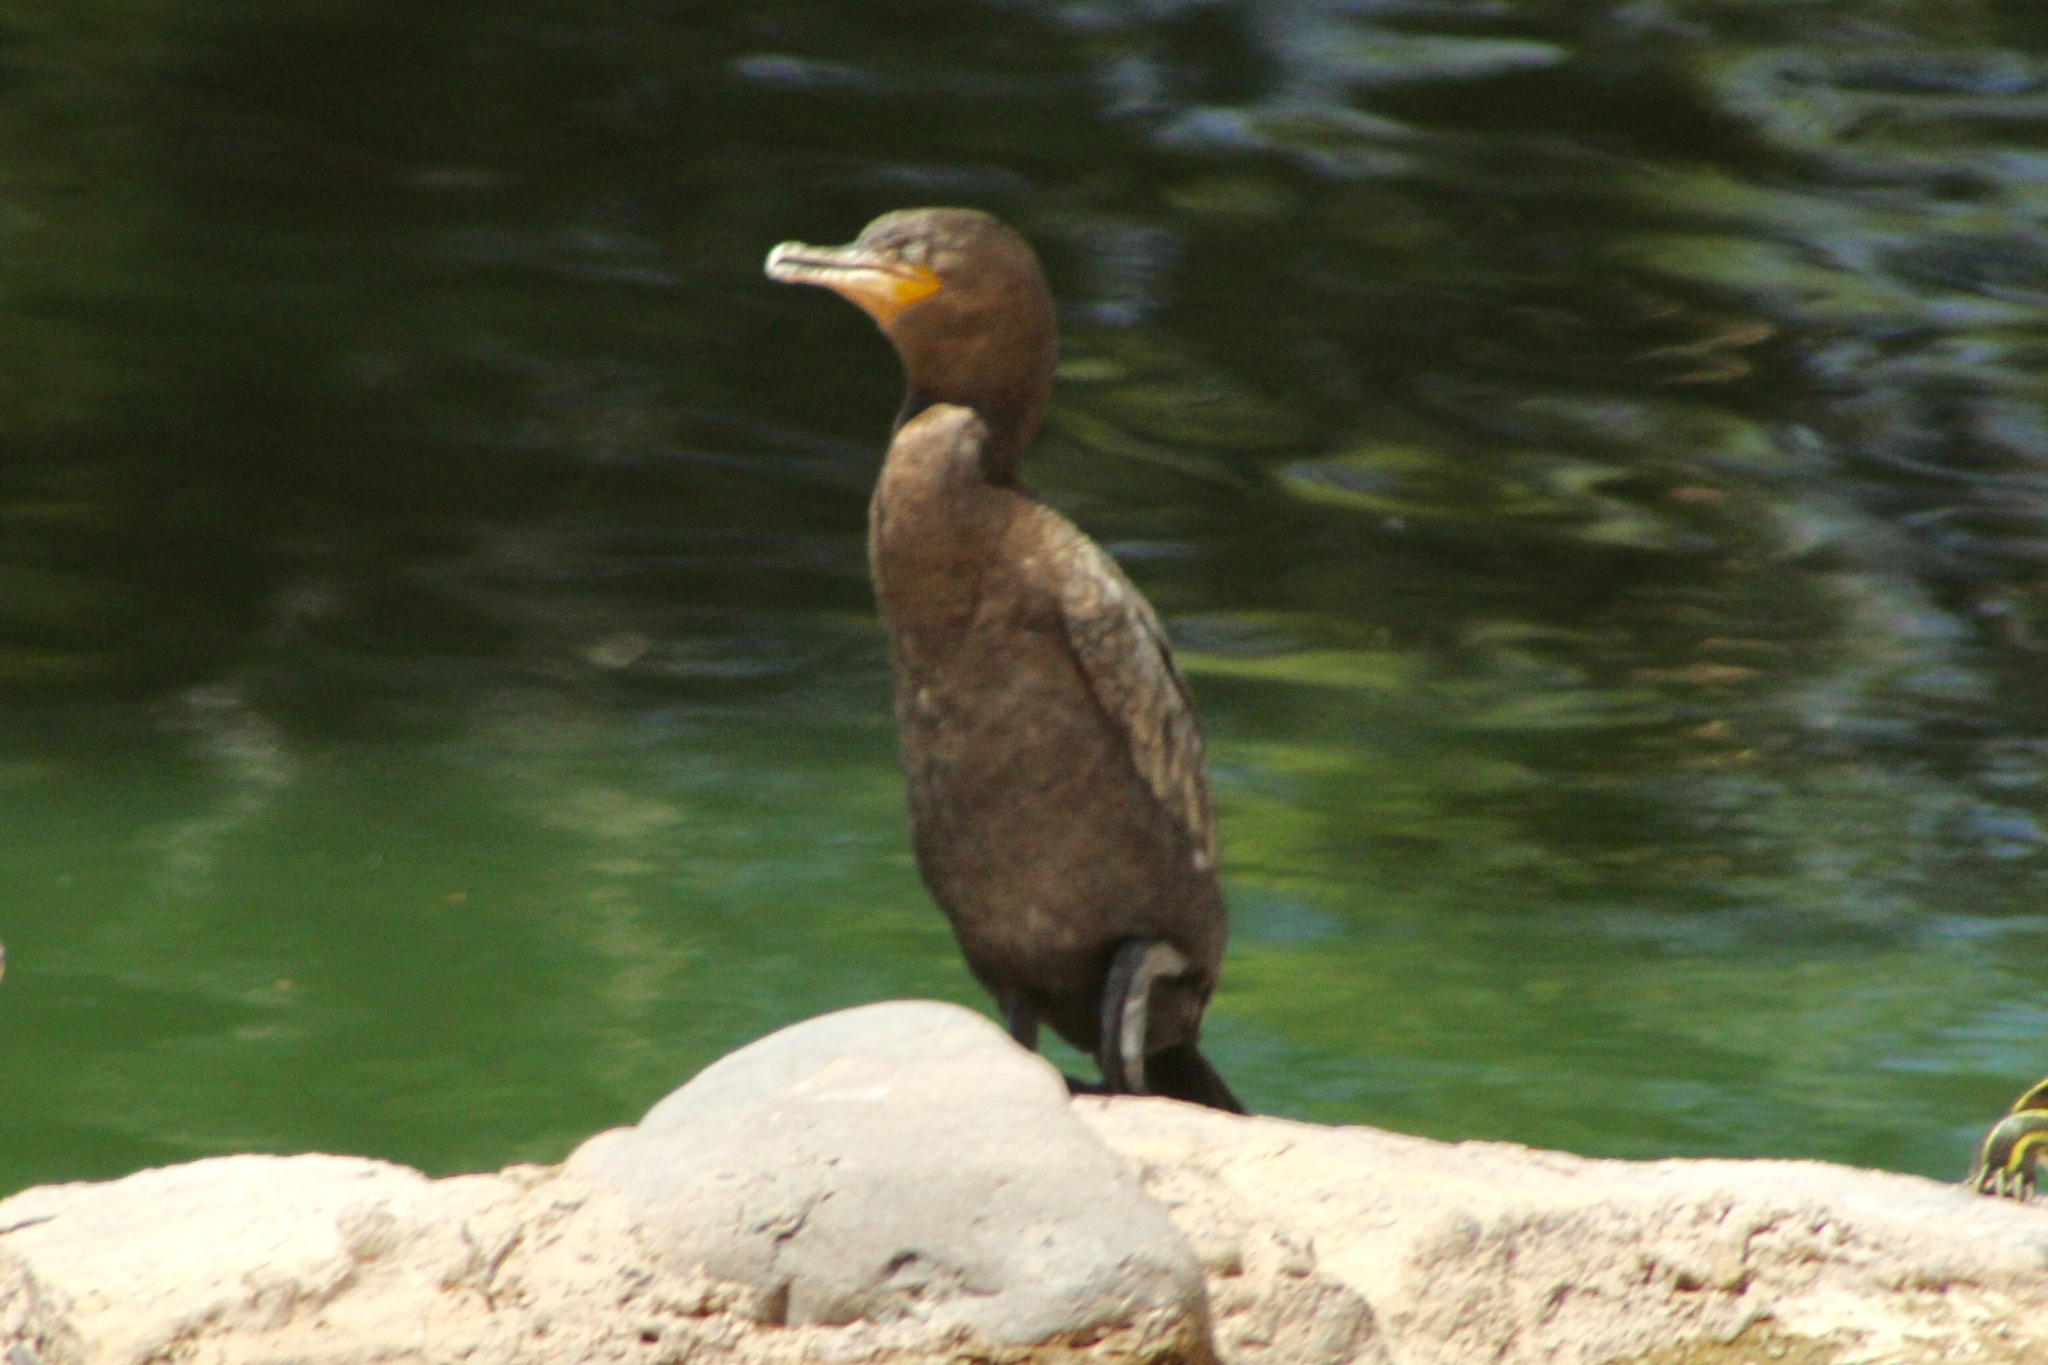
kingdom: Animalia
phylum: Chordata
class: Aves
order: Suliformes
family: Phalacrocoracidae
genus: Phalacrocorax
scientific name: Phalacrocorax brasilianus
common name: Neotropic cormorant
